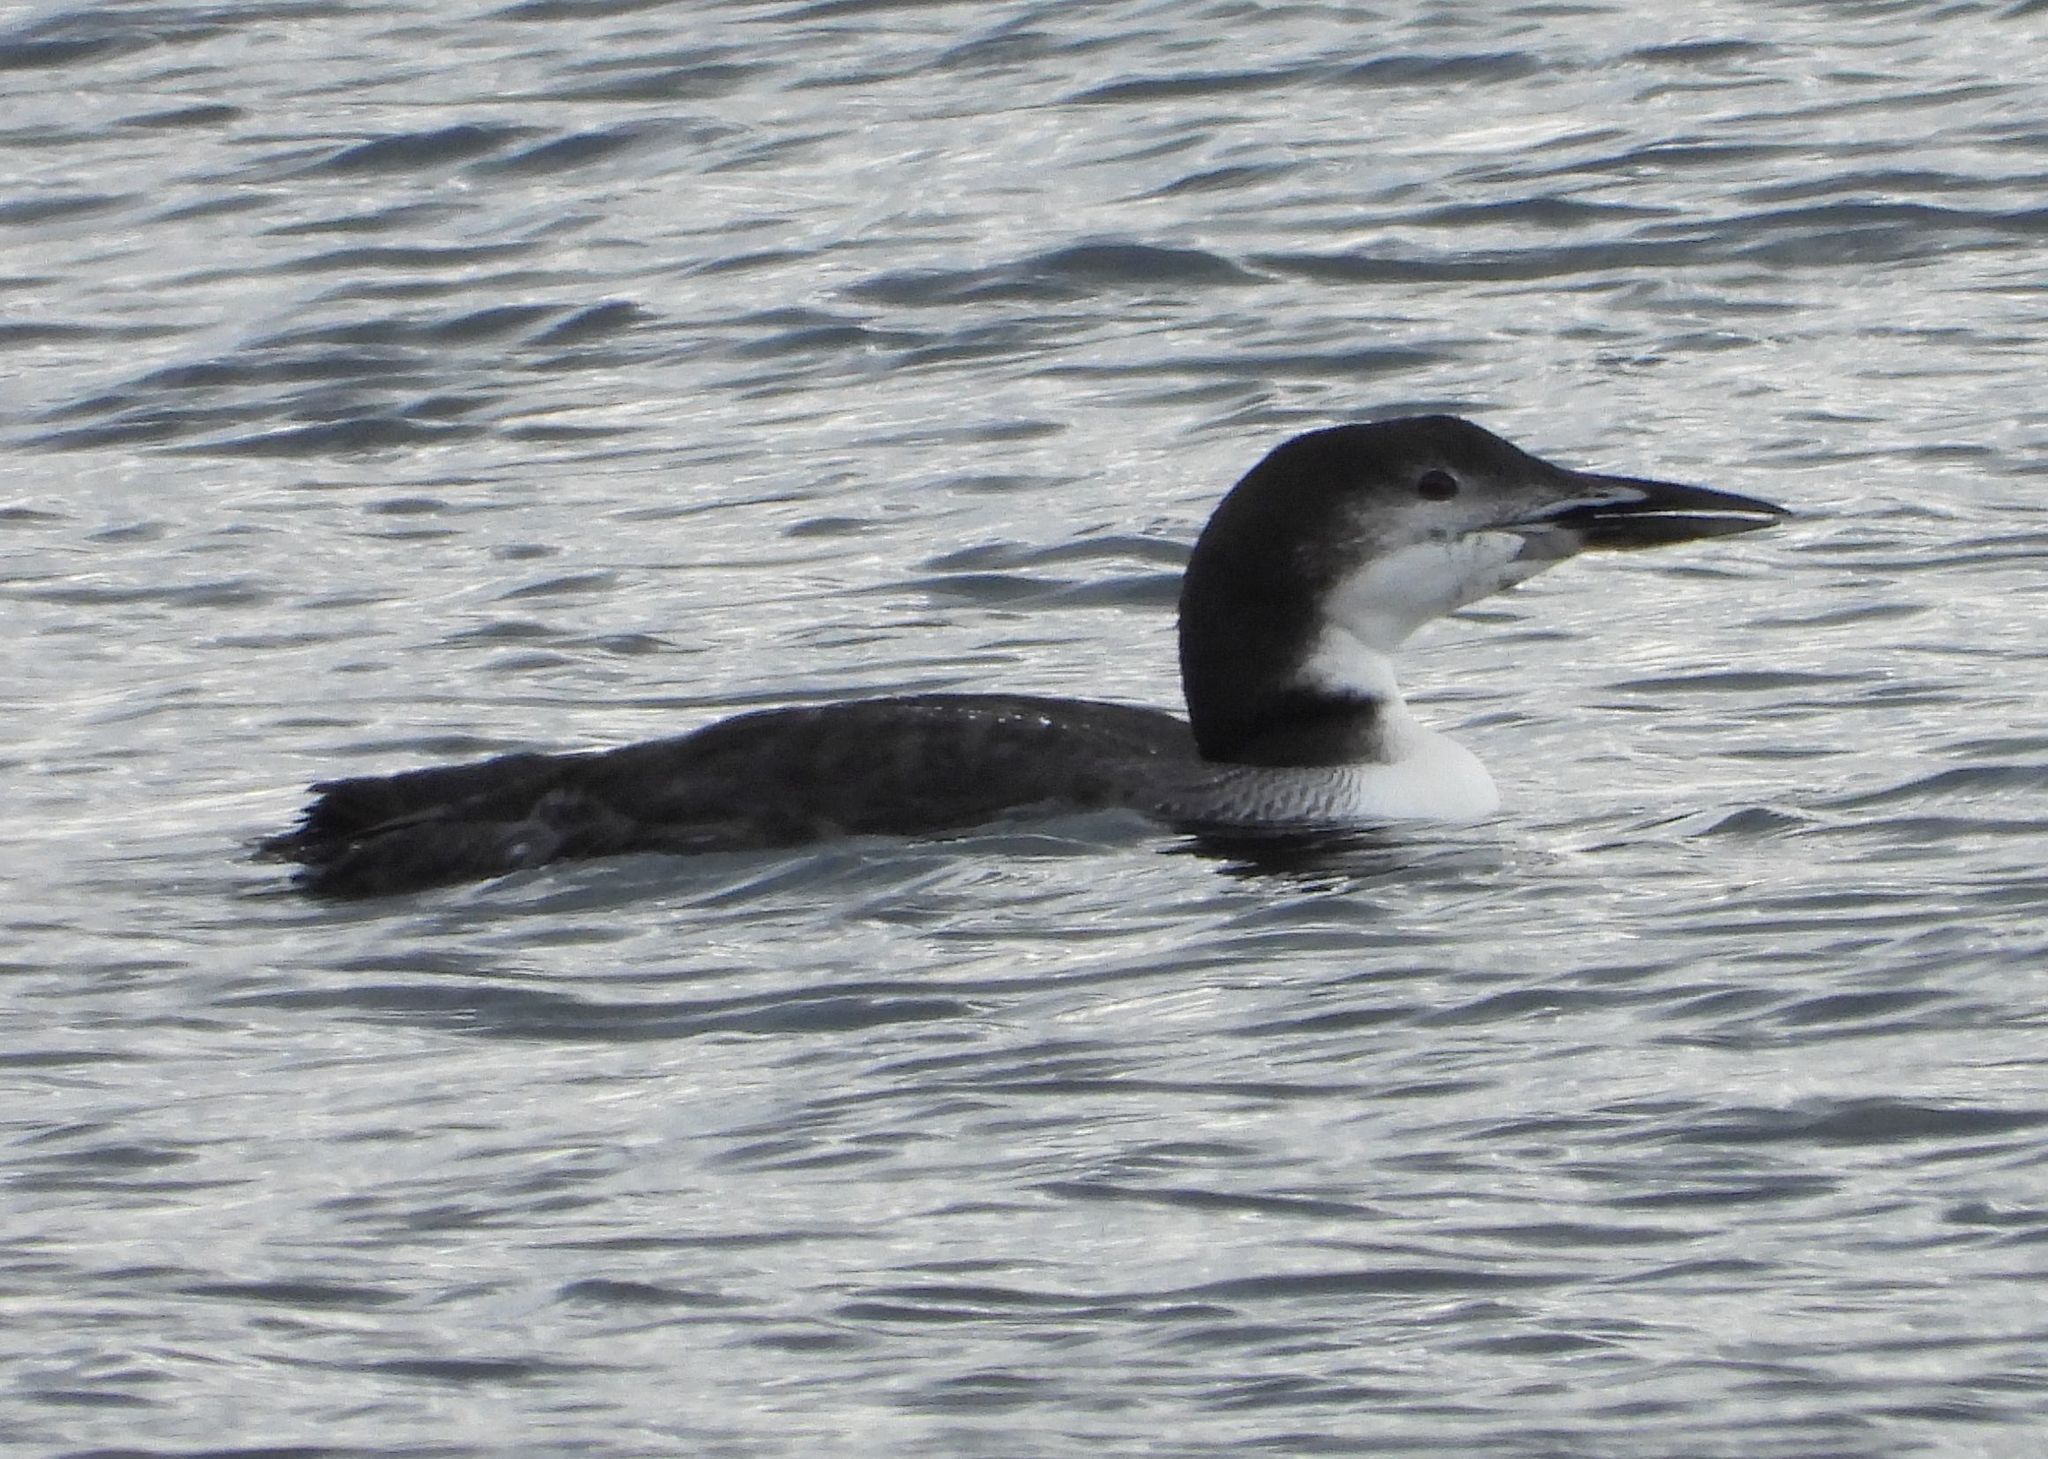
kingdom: Animalia
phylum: Chordata
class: Aves
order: Gaviiformes
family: Gaviidae
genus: Gavia
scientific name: Gavia immer
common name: Common loon
